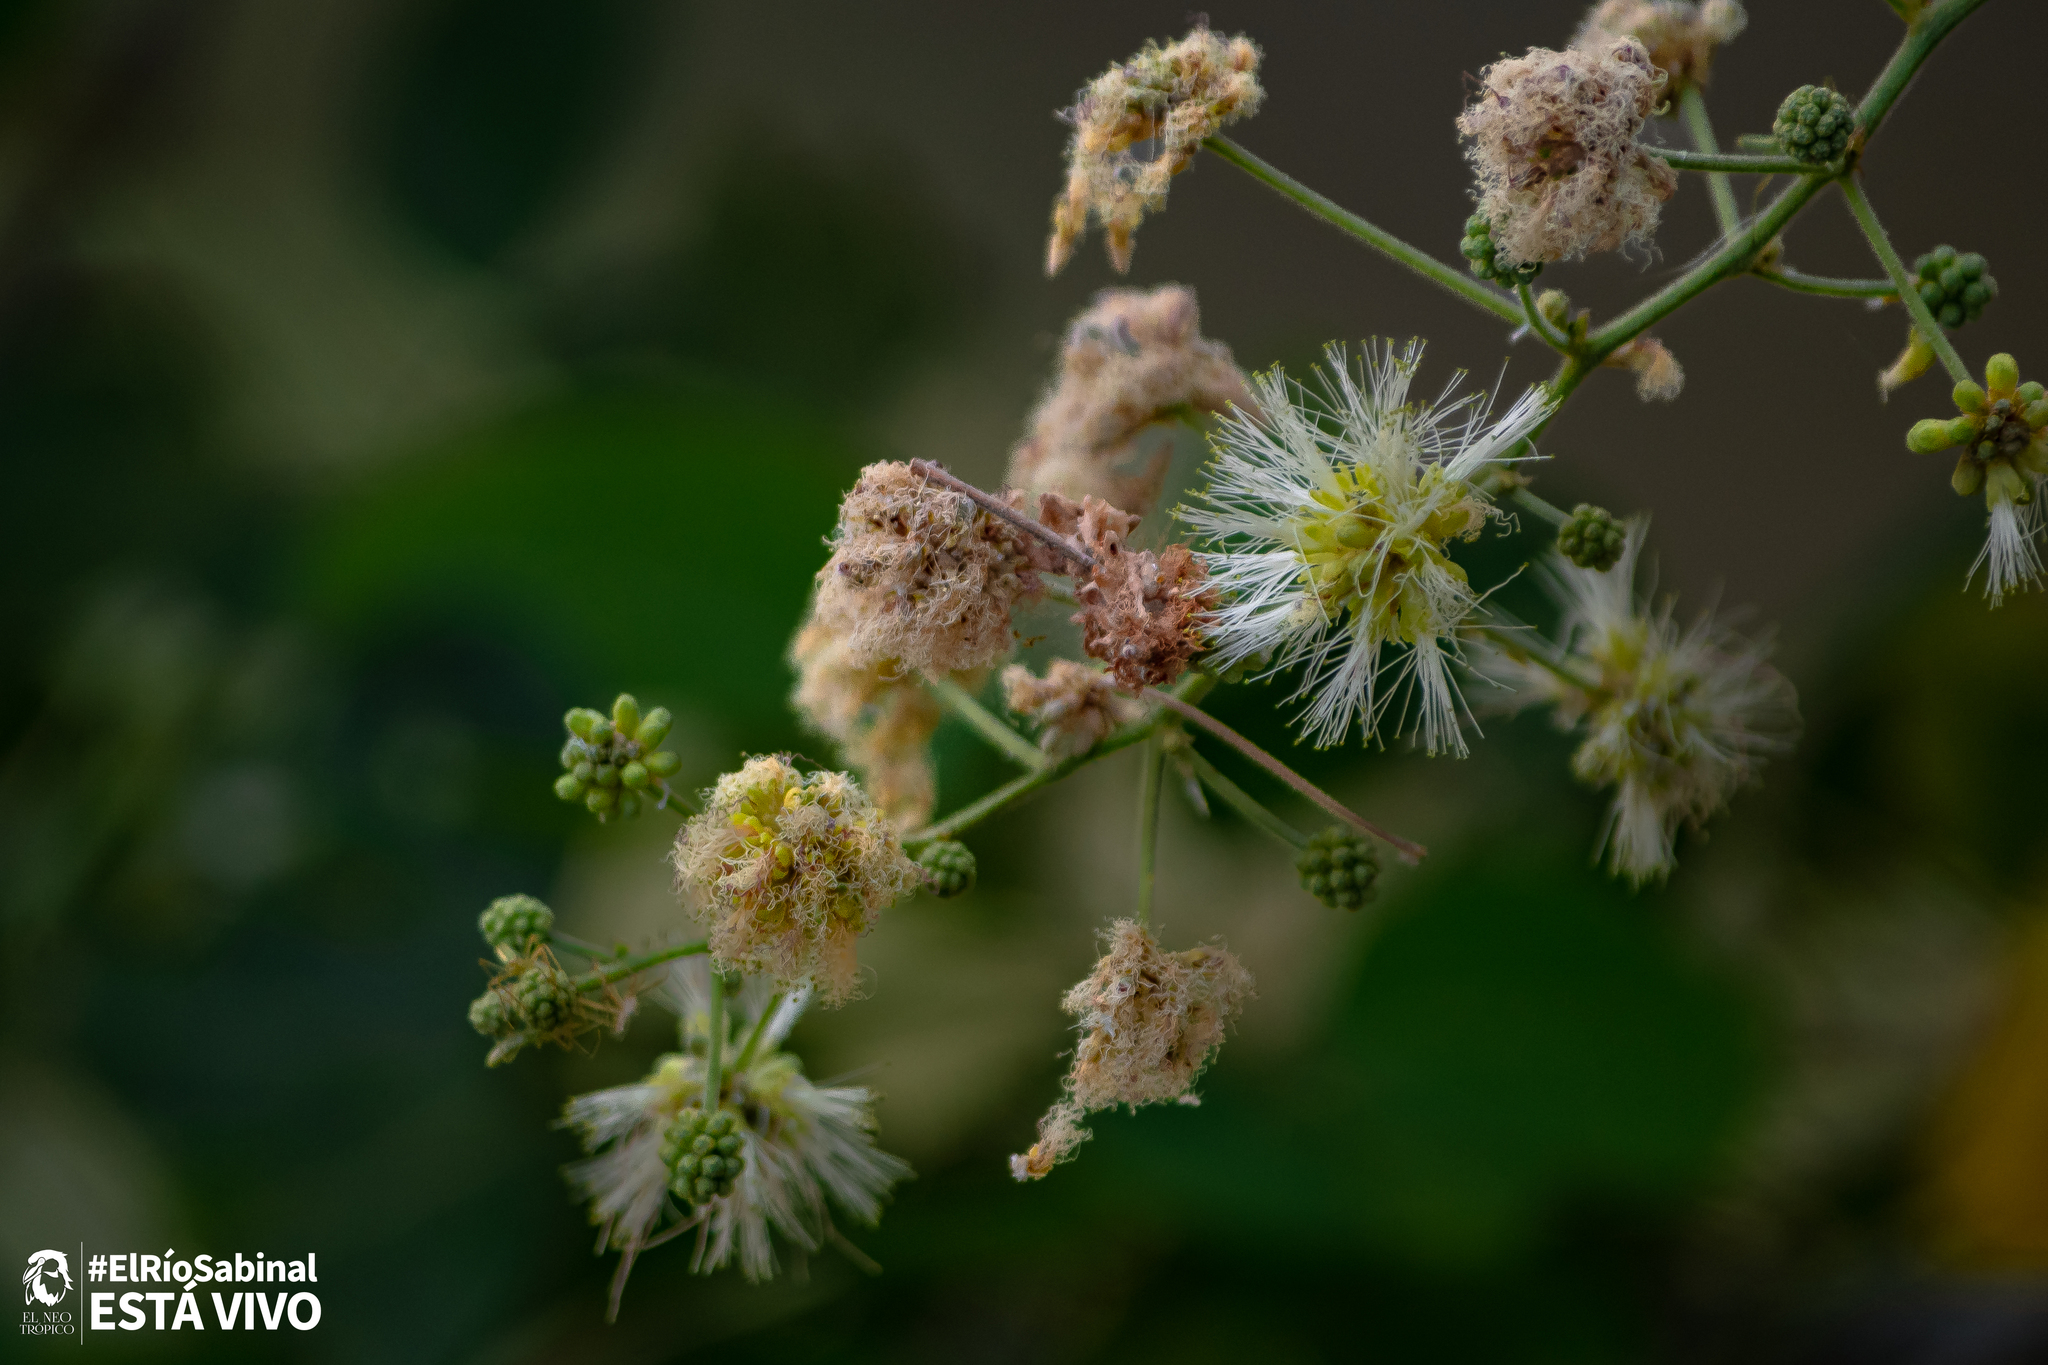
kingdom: Plantae
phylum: Tracheophyta
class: Magnoliopsida
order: Fabales
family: Fabaceae
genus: Pithecellobium
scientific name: Pithecellobium dulce
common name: Monkeypod
